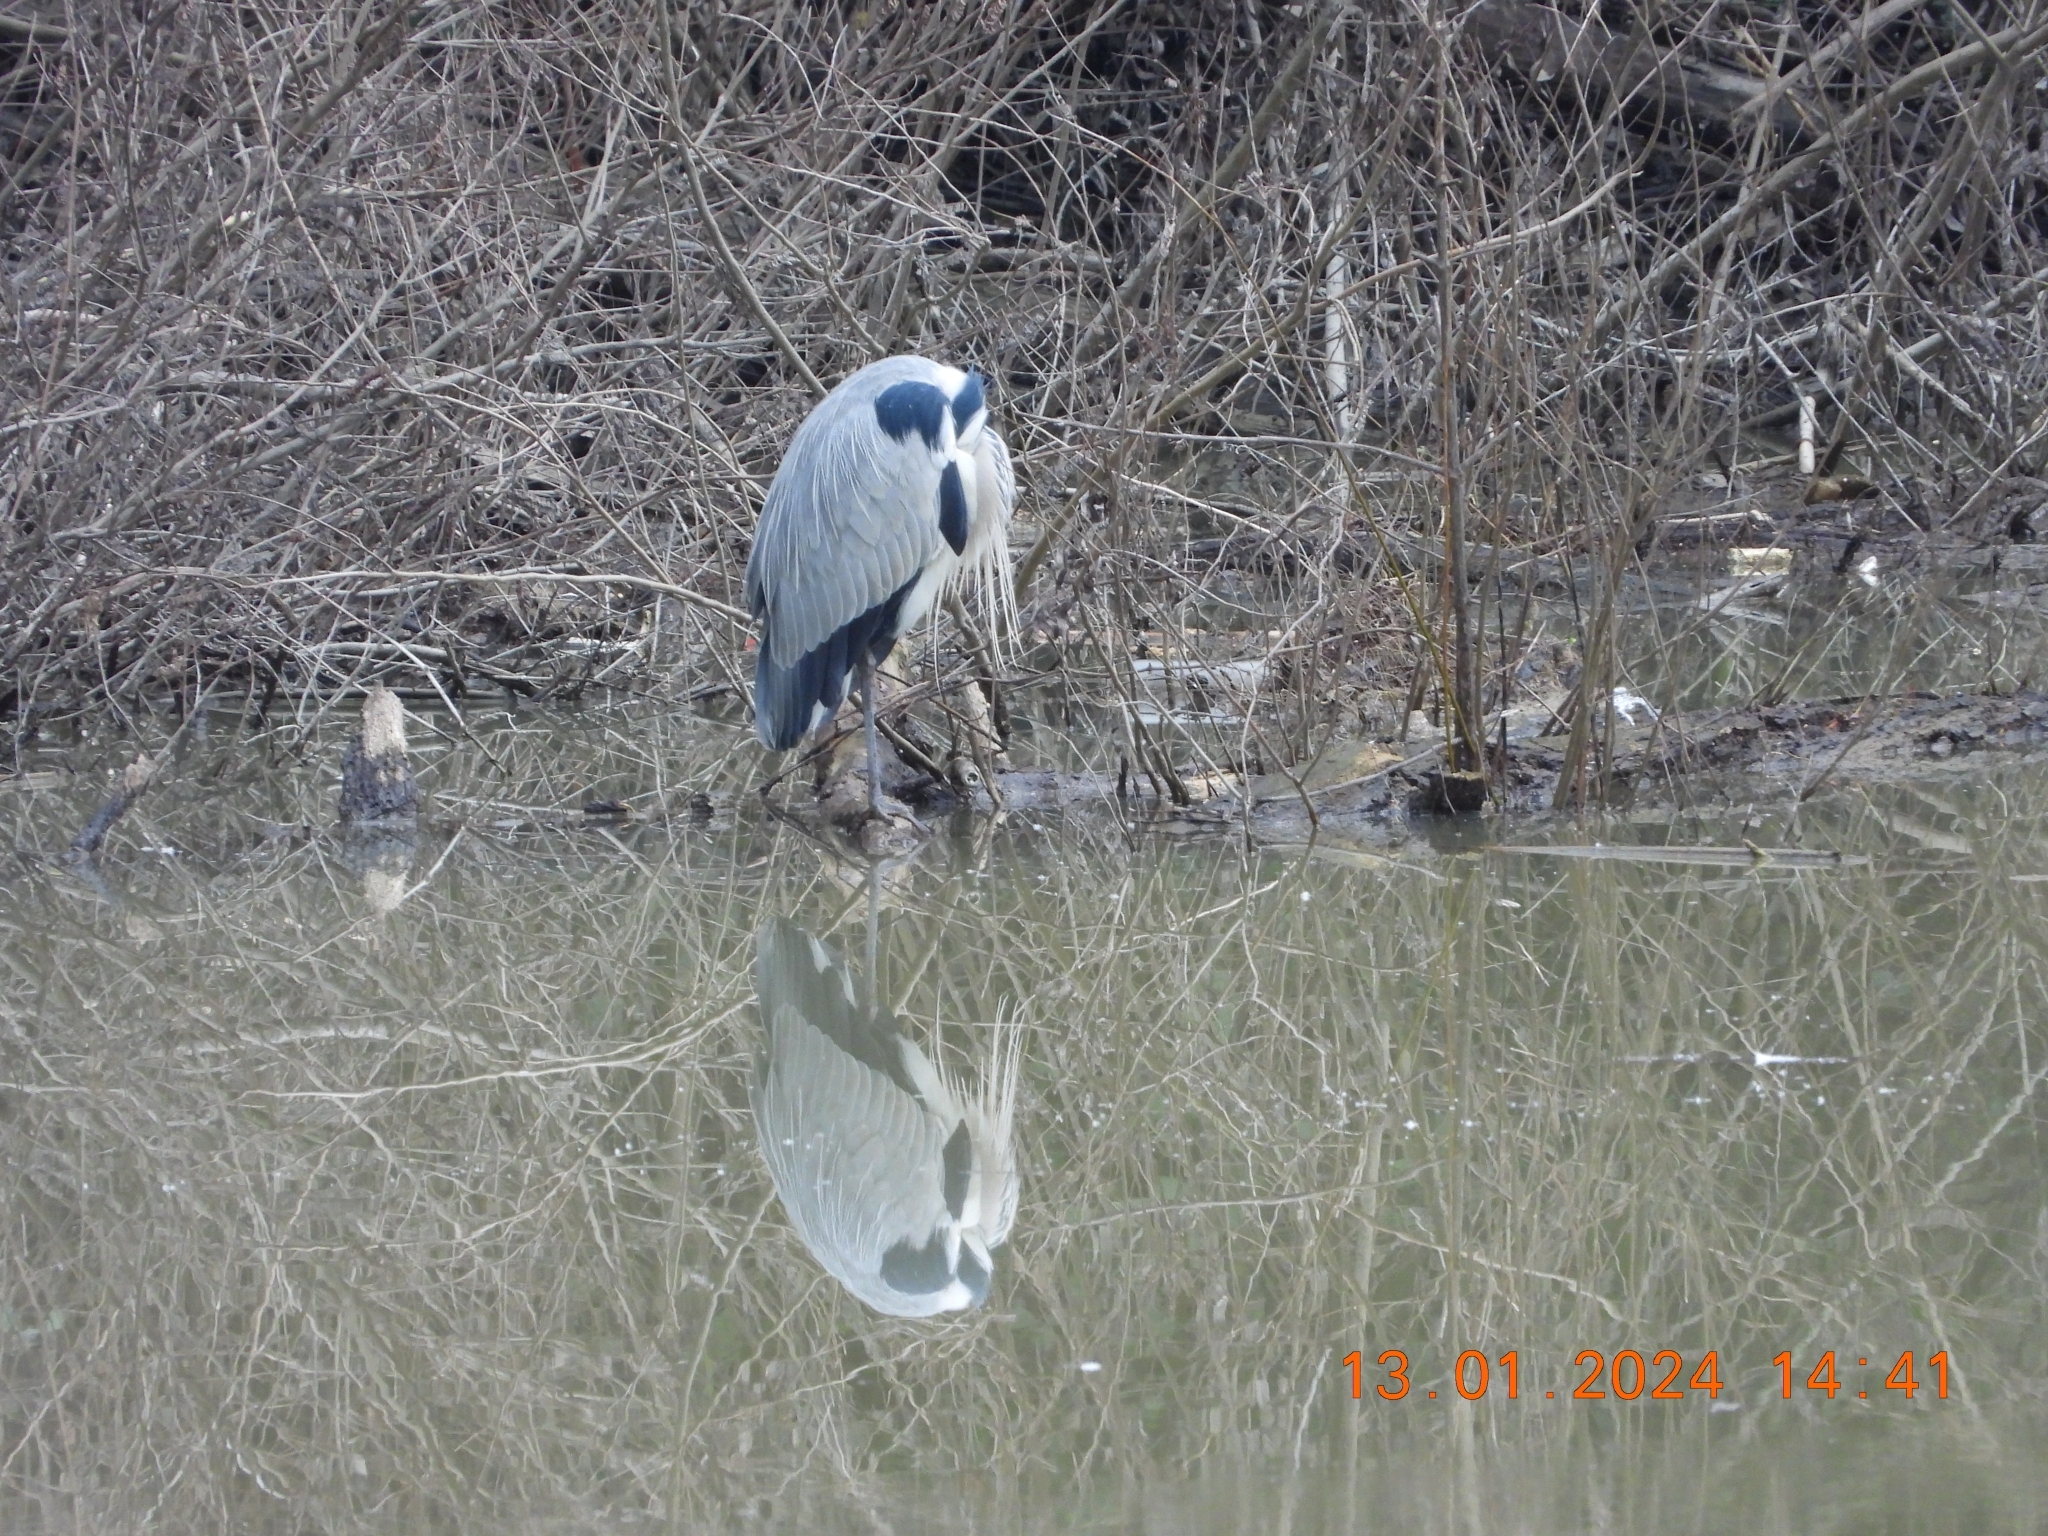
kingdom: Animalia
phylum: Chordata
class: Aves
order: Pelecaniformes
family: Ardeidae
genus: Ardea
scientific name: Ardea cinerea
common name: Grey heron
